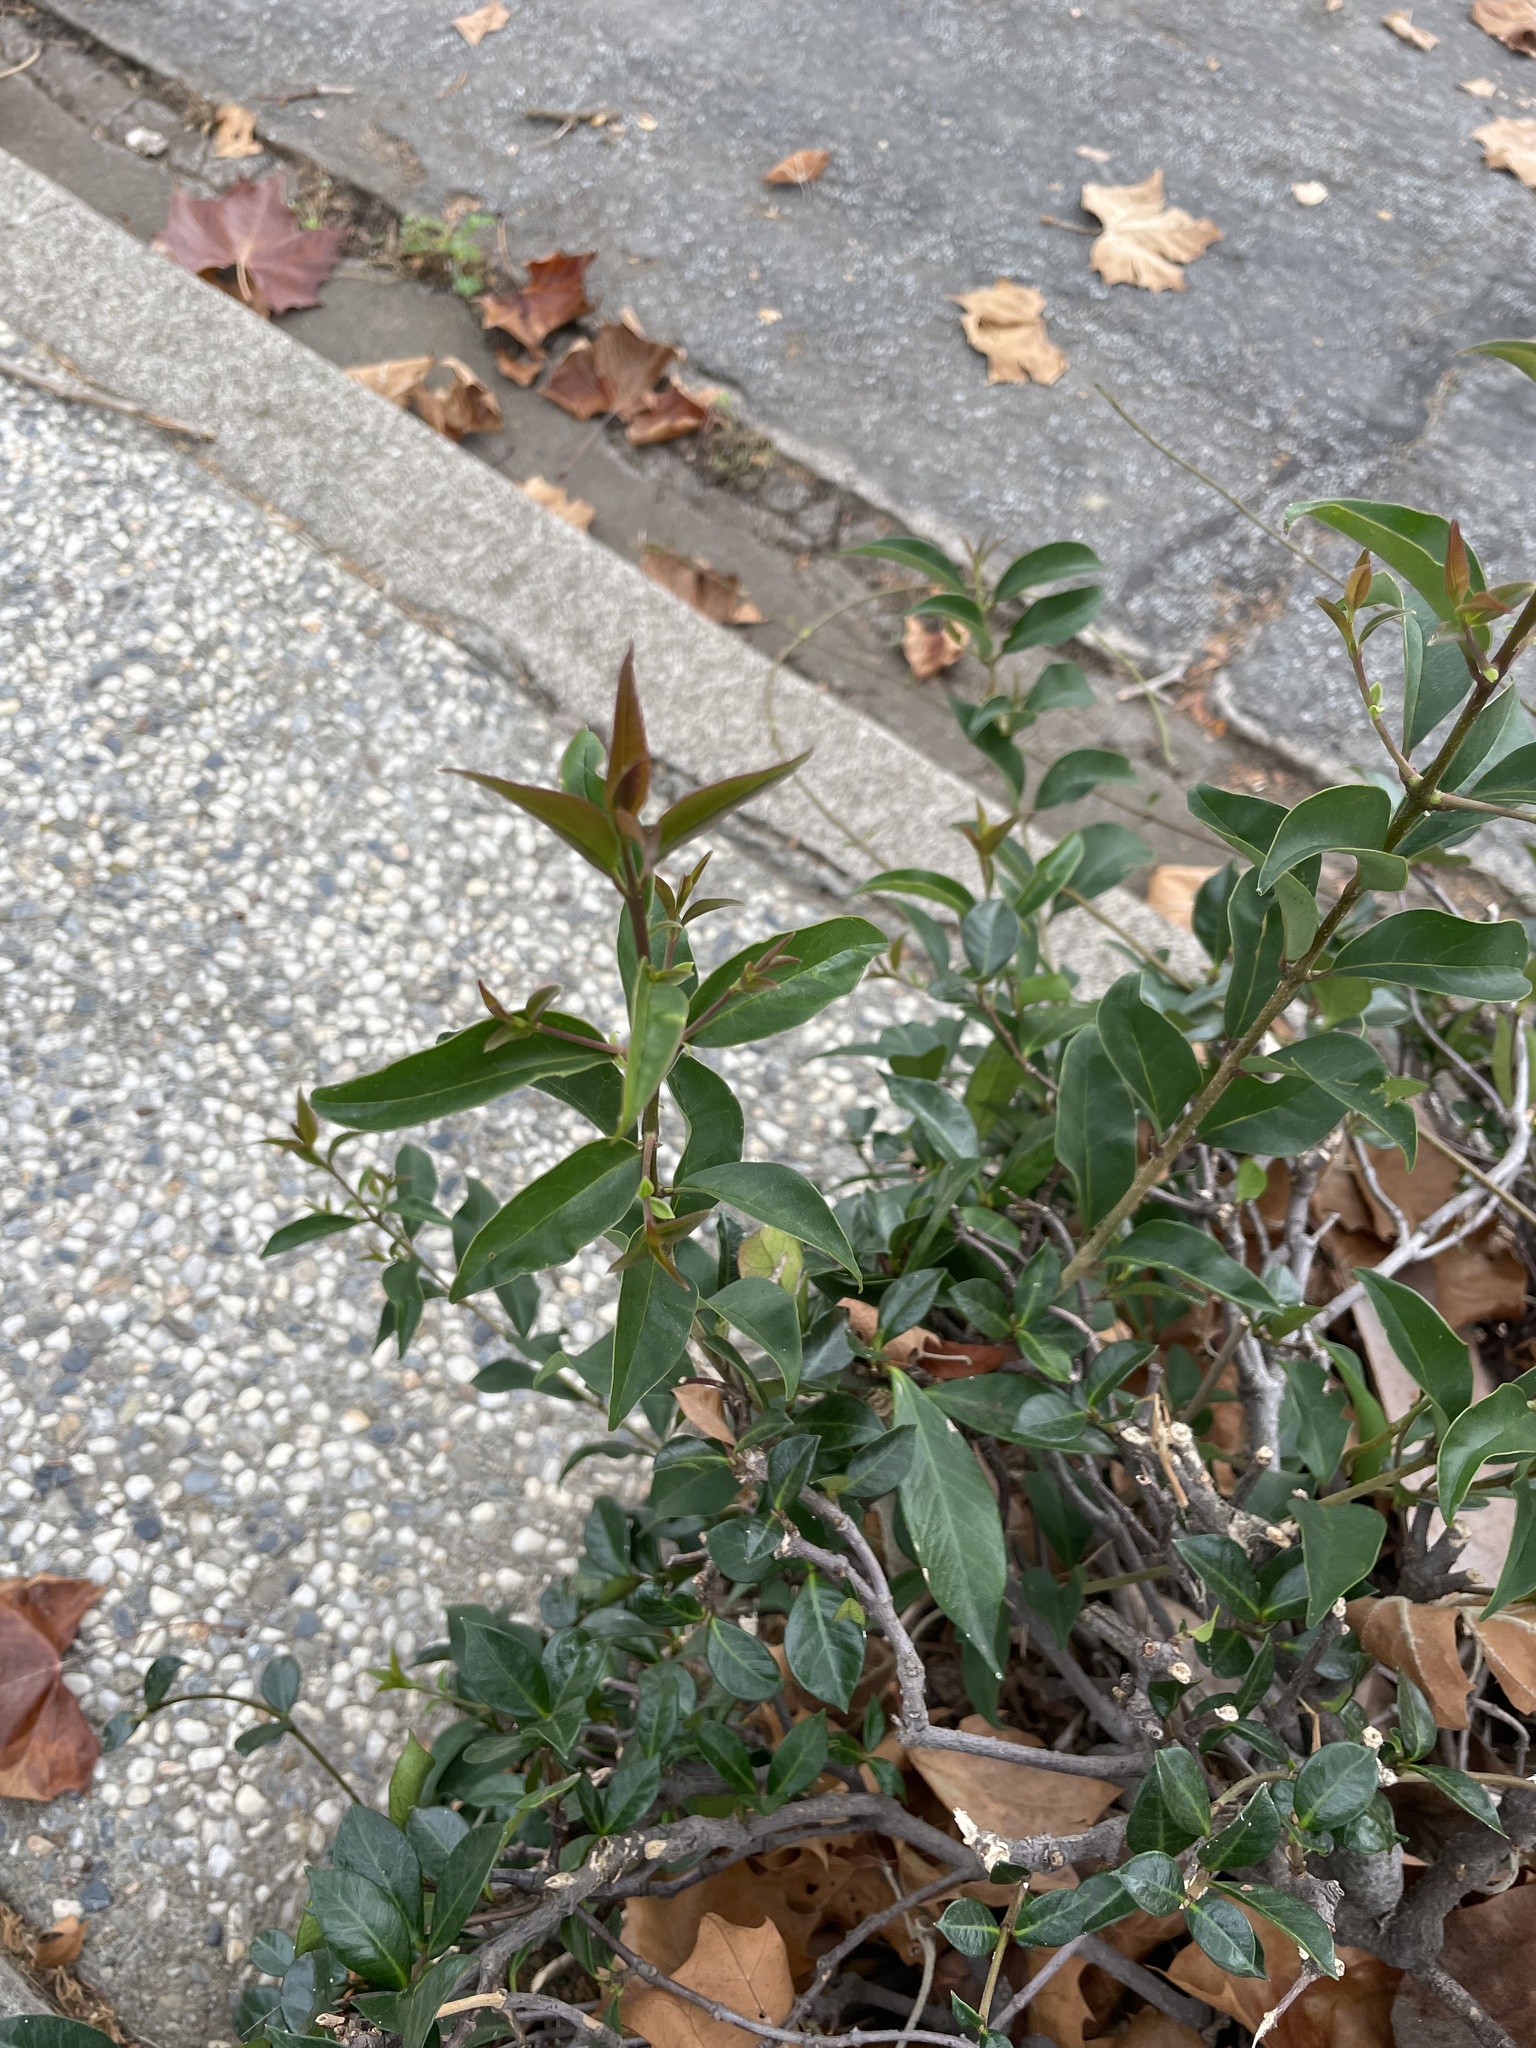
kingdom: Plantae
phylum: Tracheophyta
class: Magnoliopsida
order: Lamiales
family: Oleaceae
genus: Ligustrum
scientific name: Ligustrum lucidum
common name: Glossy privet
